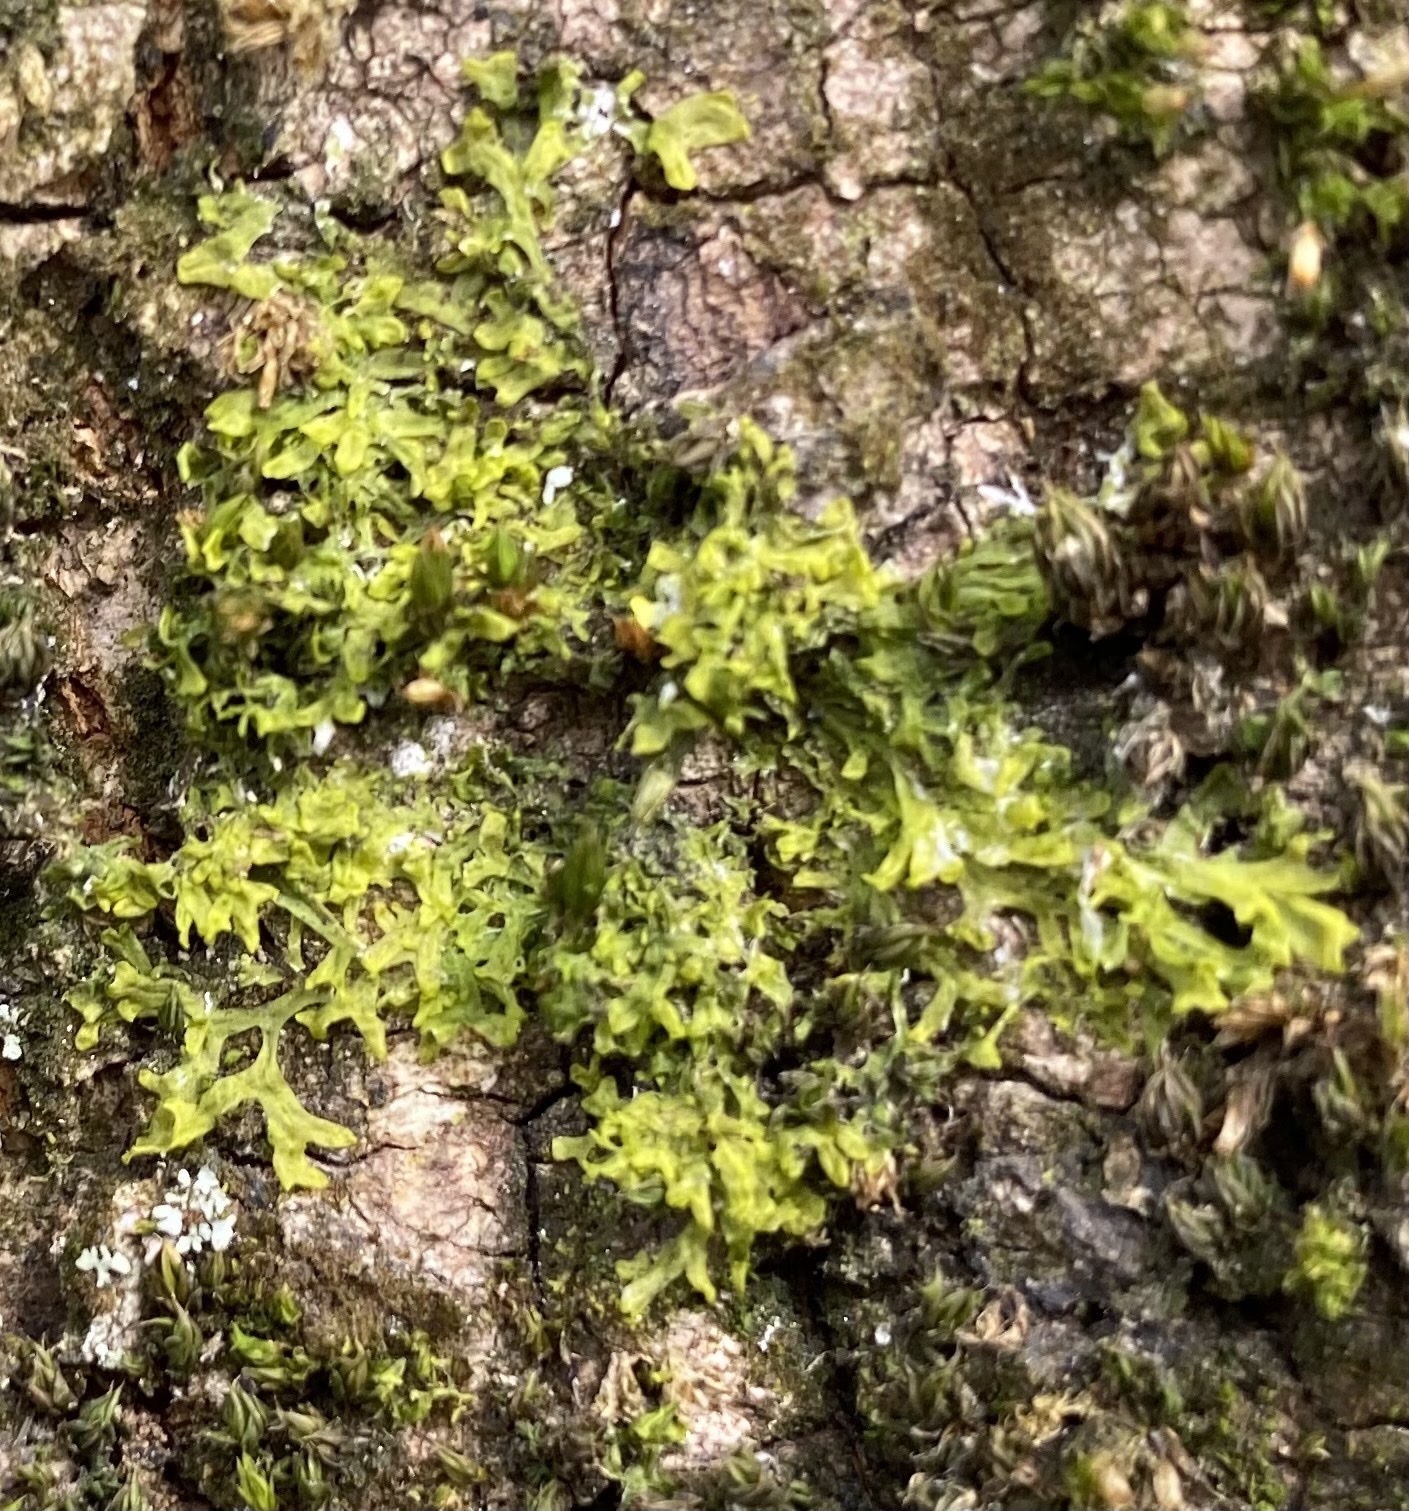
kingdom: Plantae
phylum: Marchantiophyta
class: Jungermanniopsida
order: Metzgeriales
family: Metzgeriaceae
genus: Metzgeria
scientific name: Metzgeria furcata
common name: Forked veilwort
